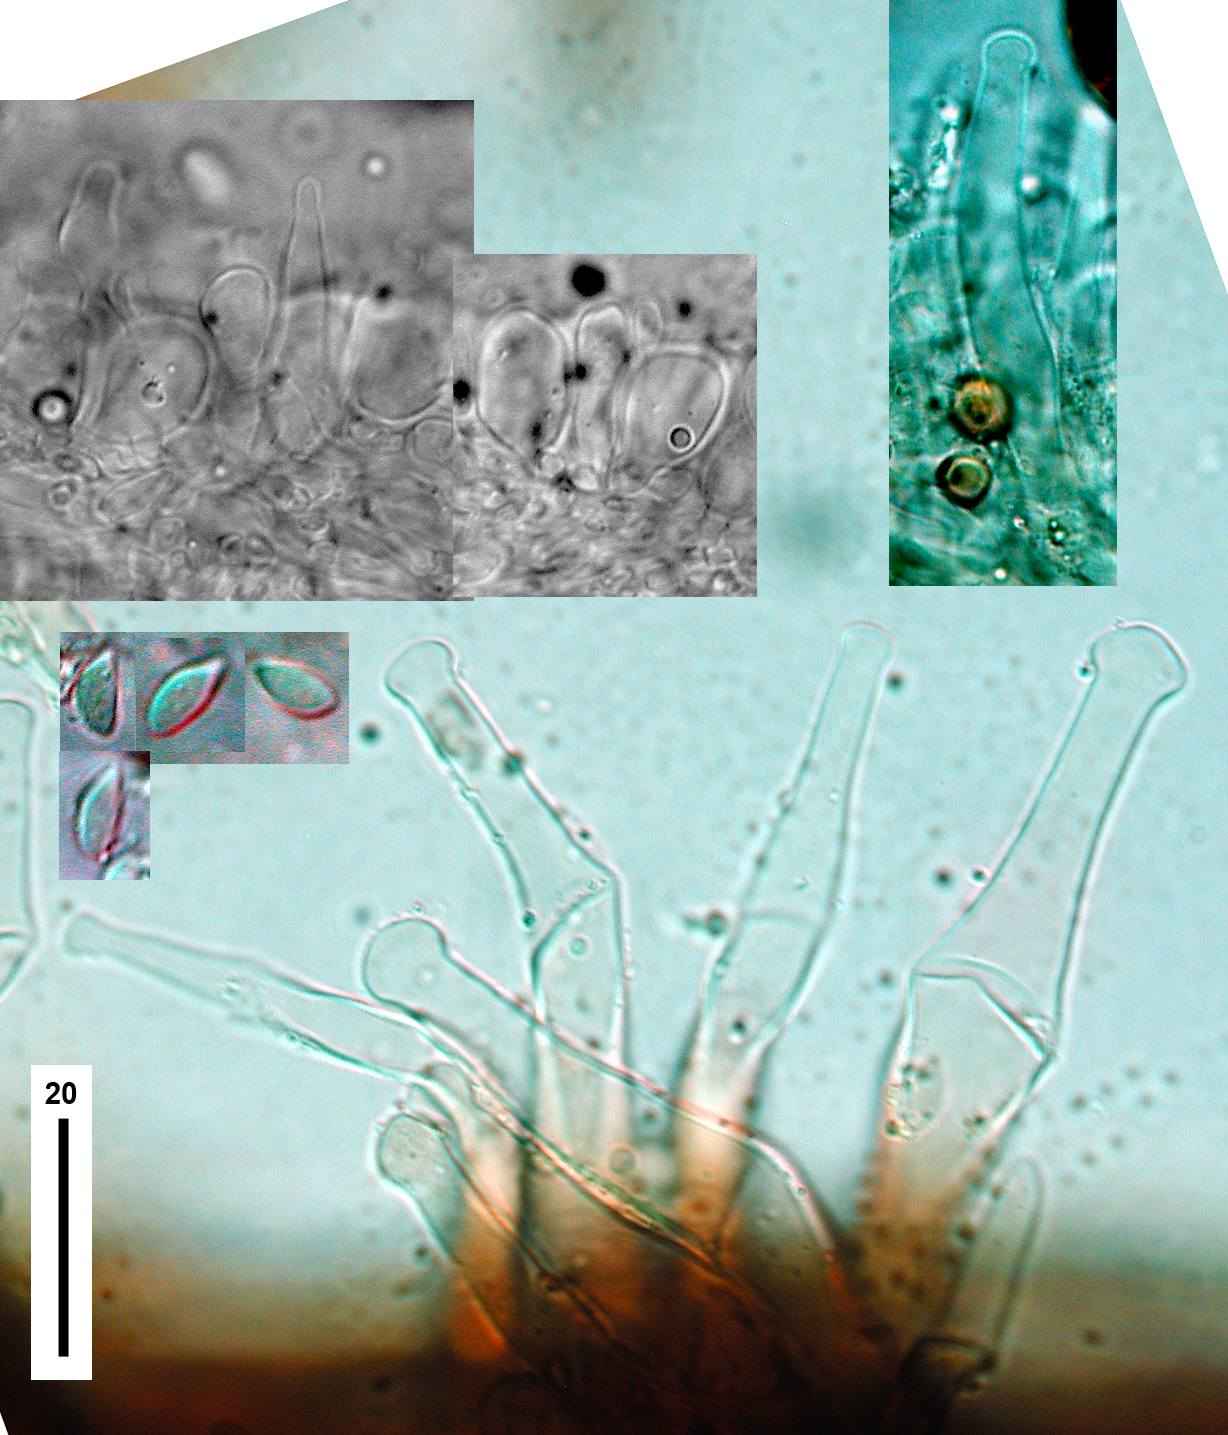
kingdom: Fungi
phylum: Basidiomycota
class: Agaricomycetes
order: Agaricales
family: Physalacriaceae
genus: Gloiocephala
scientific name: Gloiocephala nothofagi
